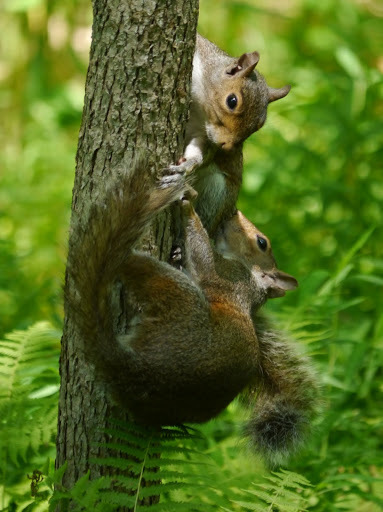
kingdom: Animalia
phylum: Chordata
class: Mammalia
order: Rodentia
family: Sciuridae
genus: Sciurus
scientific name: Sciurus carolinensis
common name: Eastern gray squirrel
